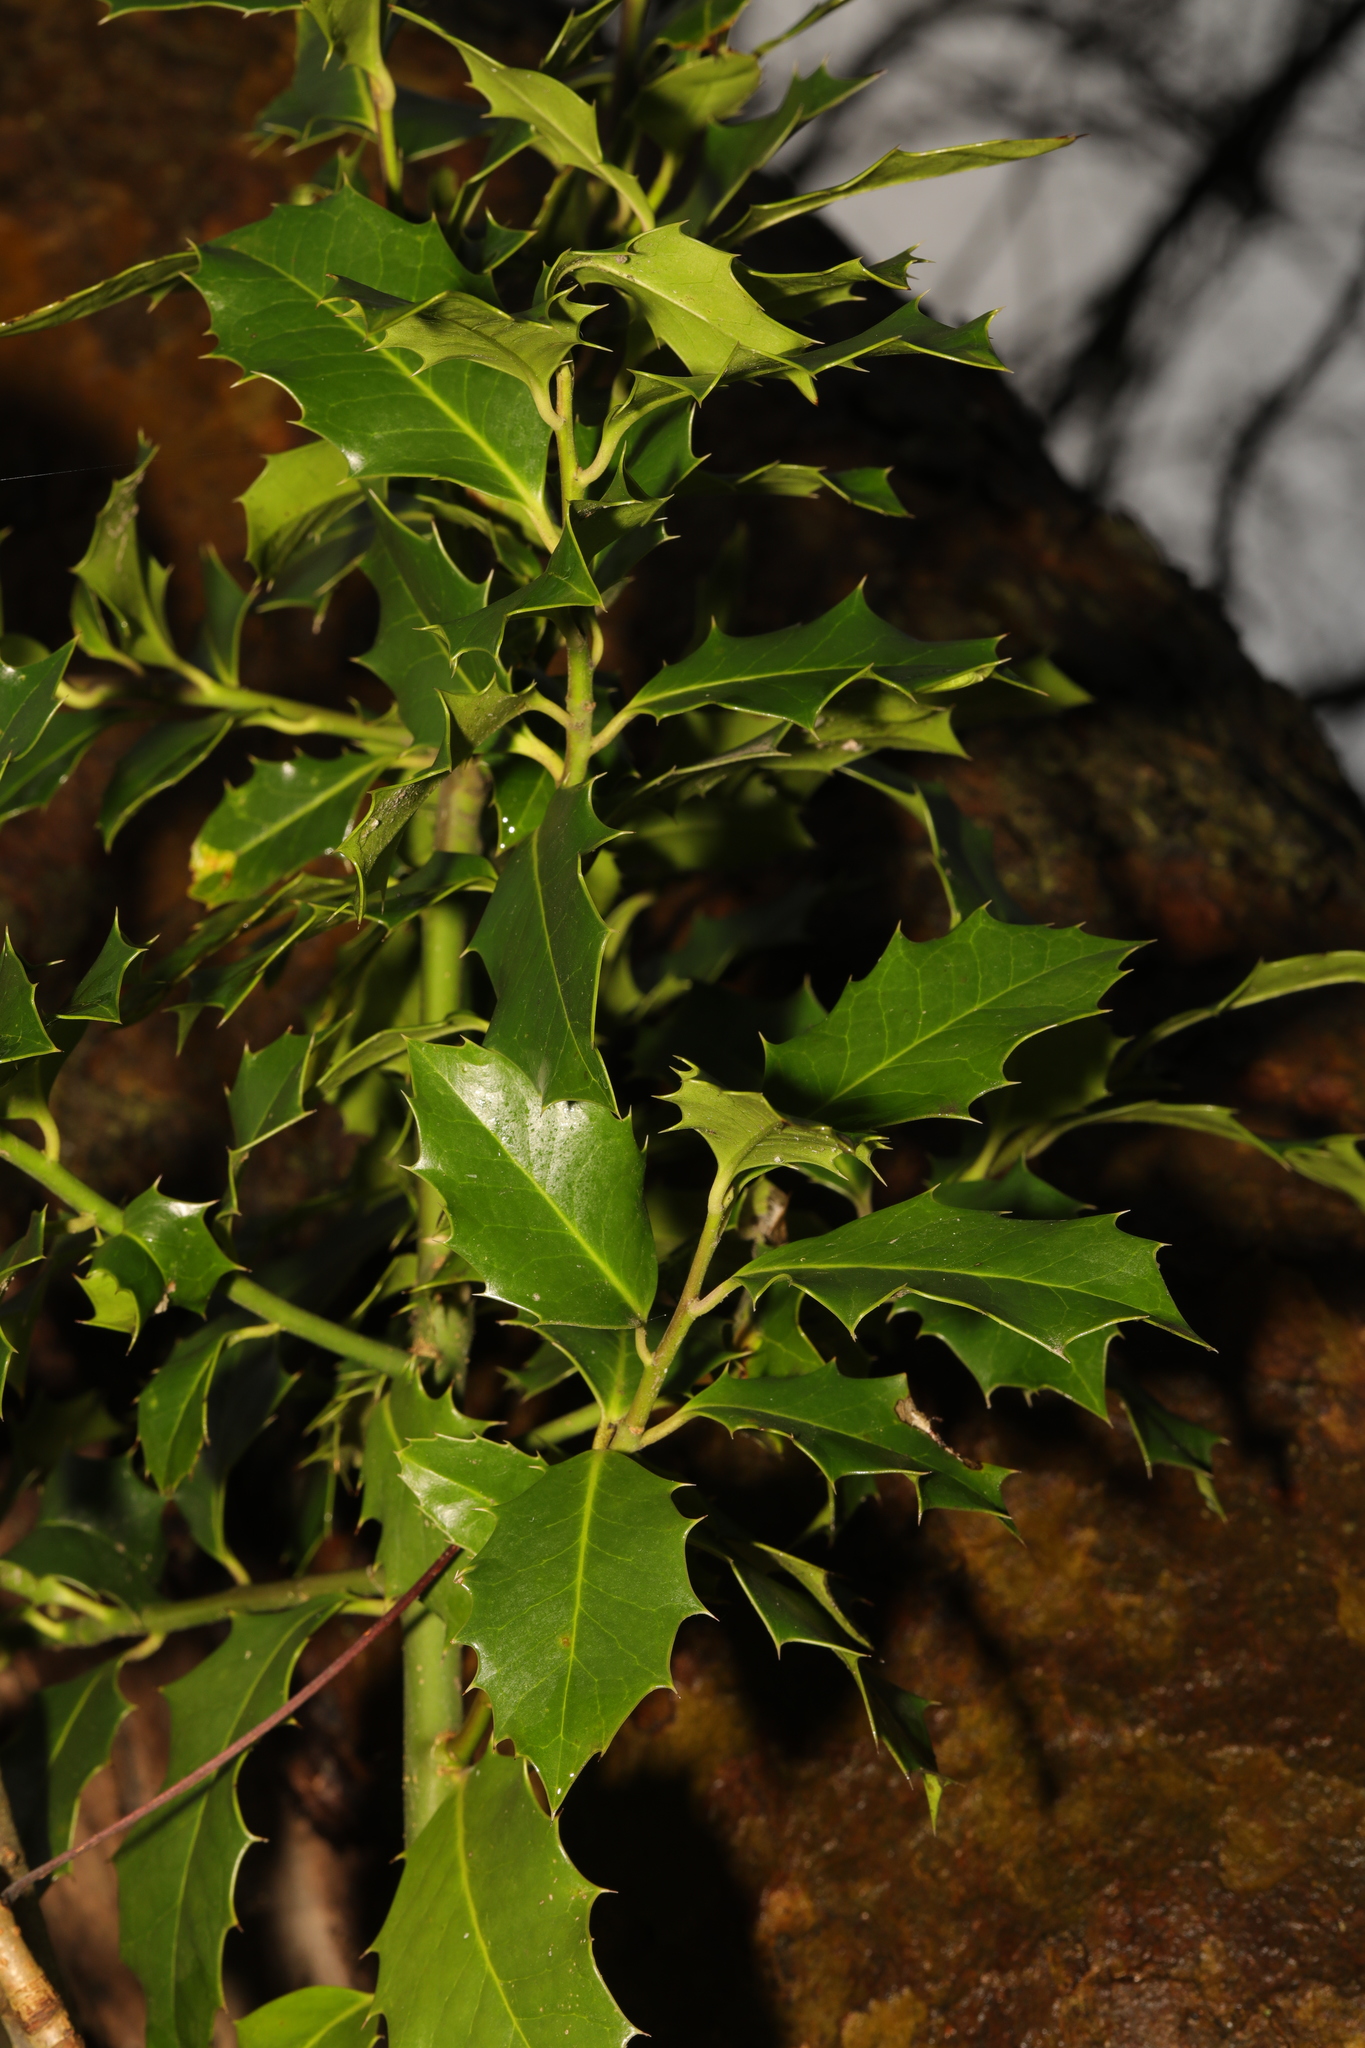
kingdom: Plantae
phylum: Tracheophyta
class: Magnoliopsida
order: Aquifoliales
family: Aquifoliaceae
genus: Ilex
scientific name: Ilex aquifolium
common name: English holly
